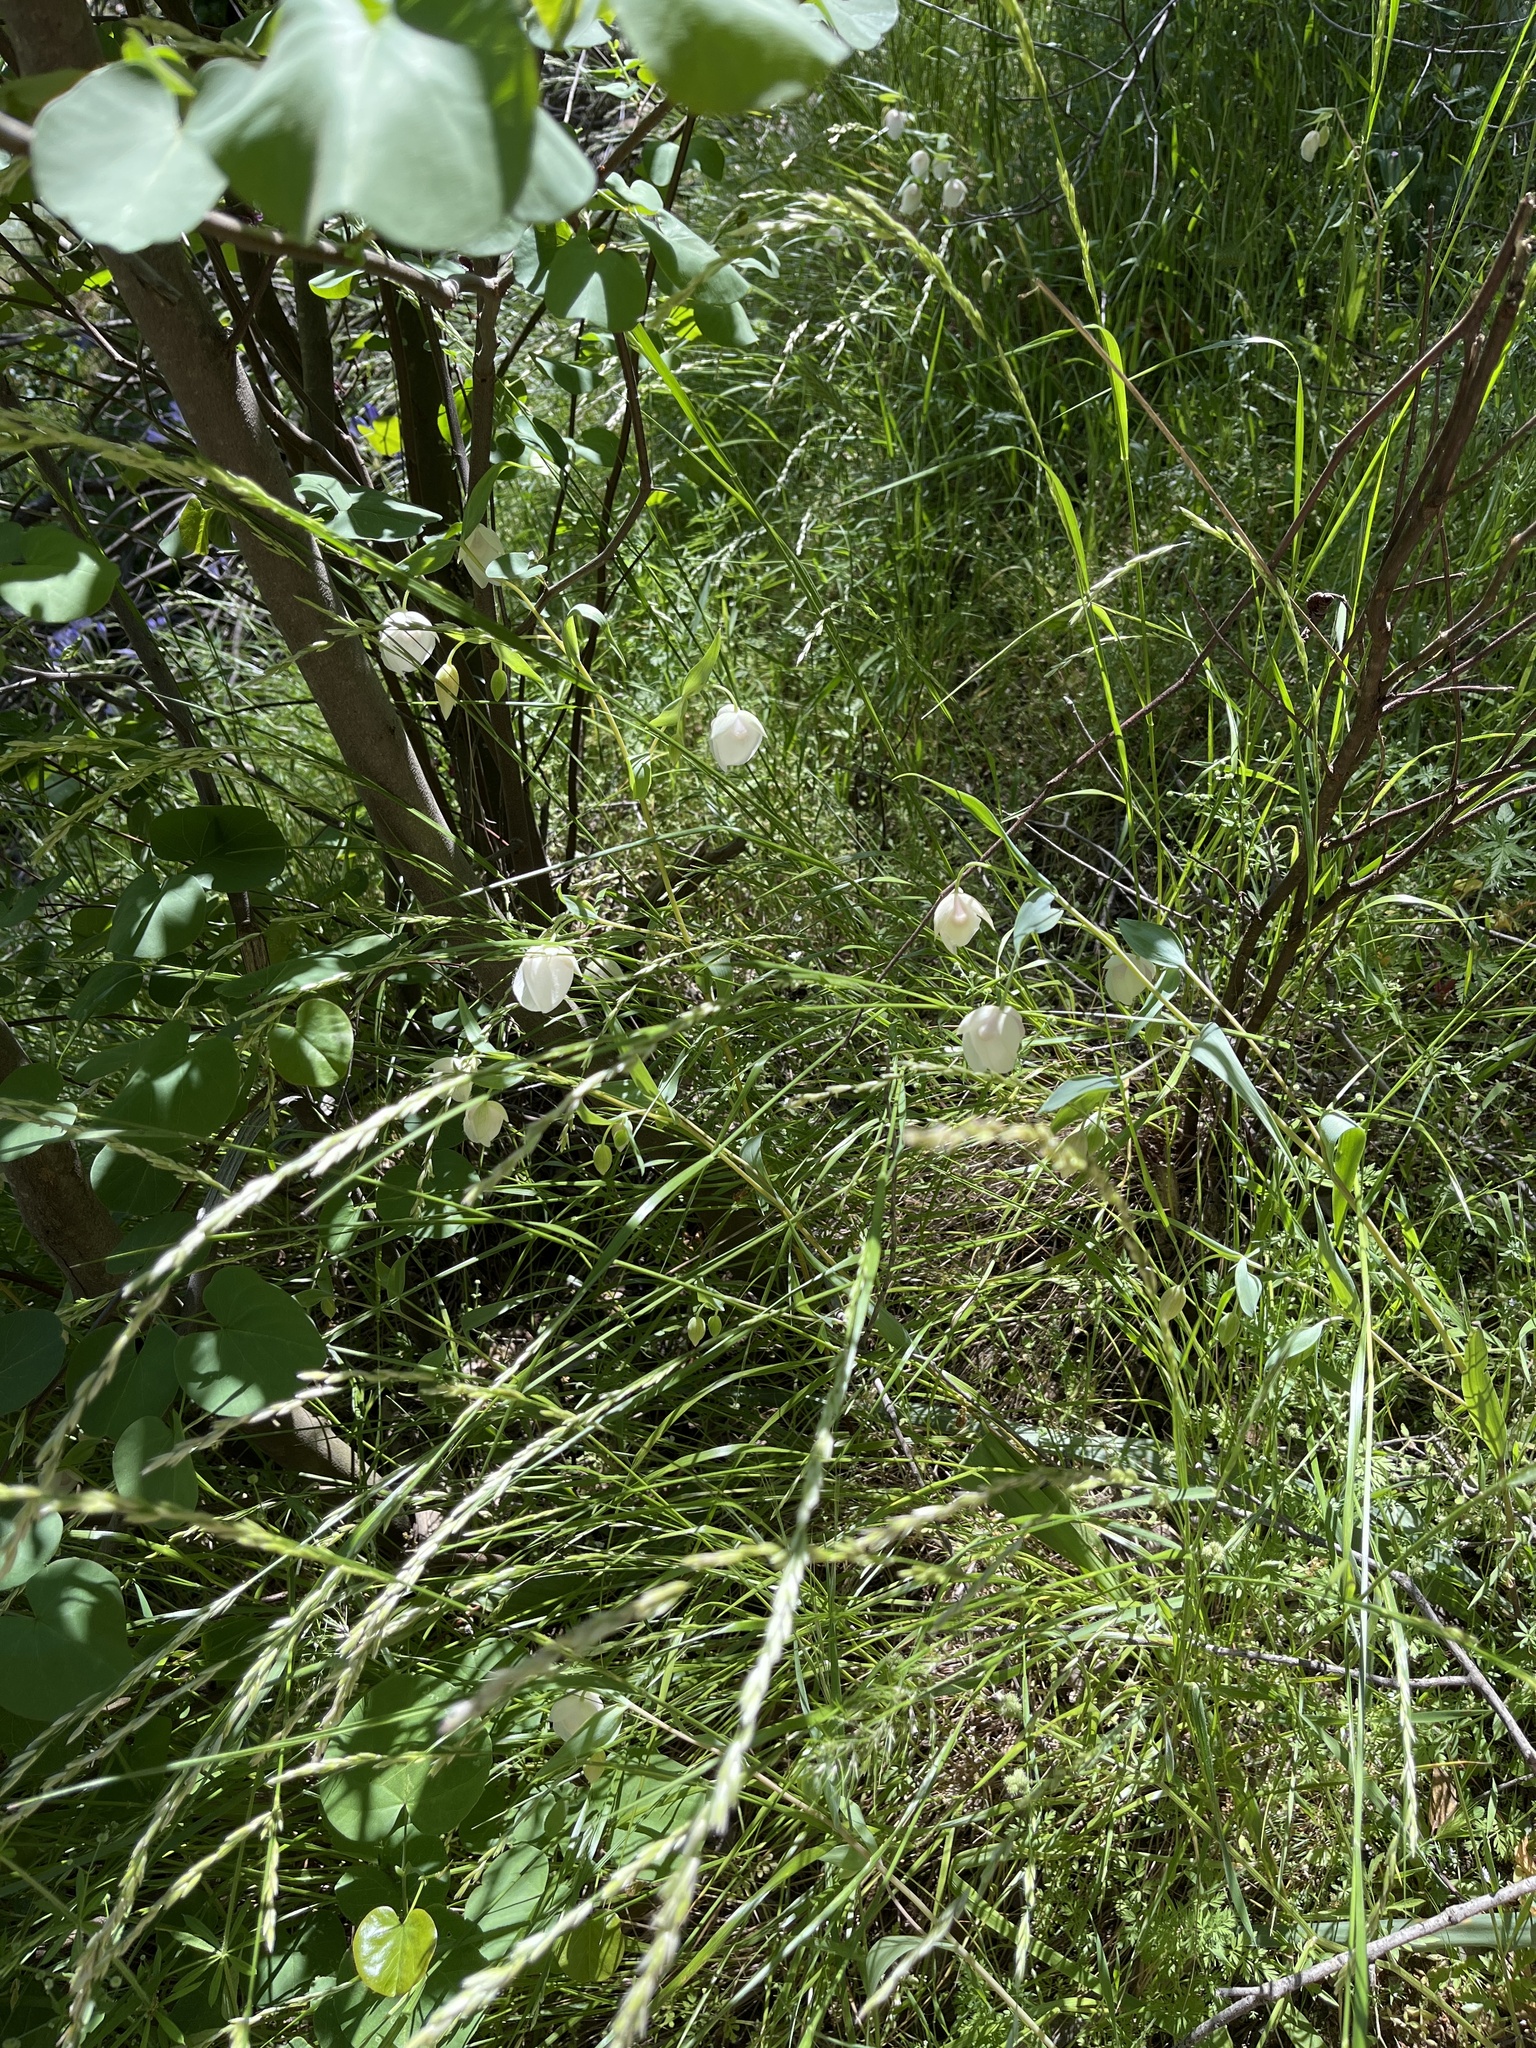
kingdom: Plantae
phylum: Tracheophyta
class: Liliopsida
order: Liliales
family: Liliaceae
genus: Calochortus
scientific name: Calochortus albus
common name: Fairy-lantern
